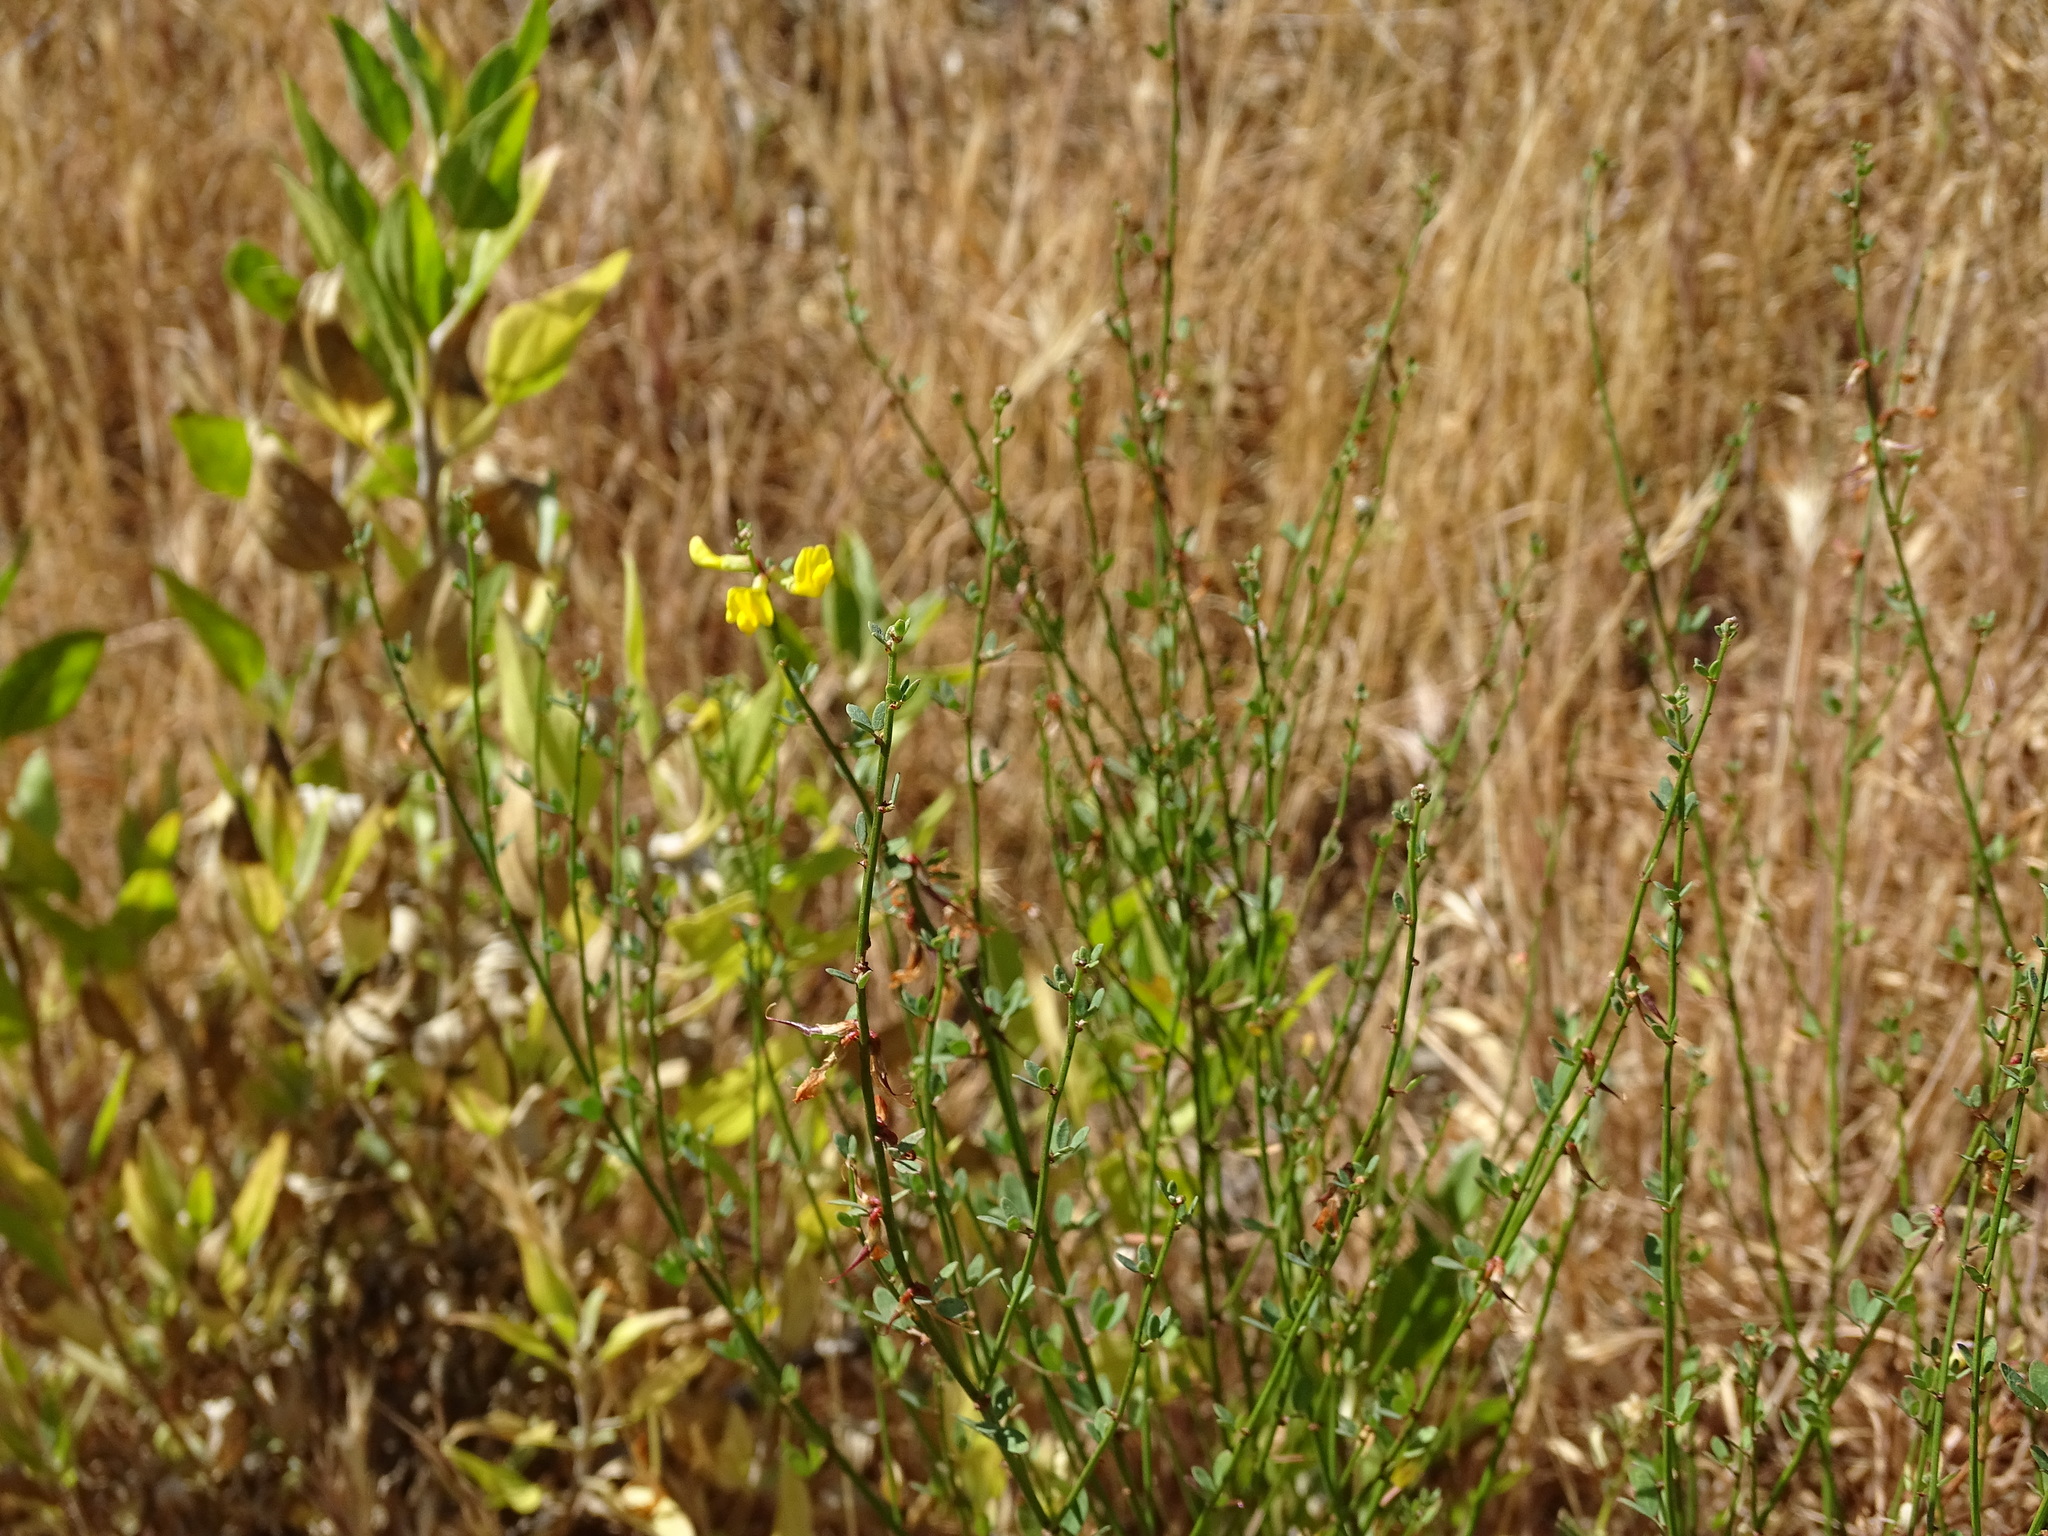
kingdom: Plantae
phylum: Tracheophyta
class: Magnoliopsida
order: Fabales
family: Fabaceae
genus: Acmispon
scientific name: Acmispon glaber
